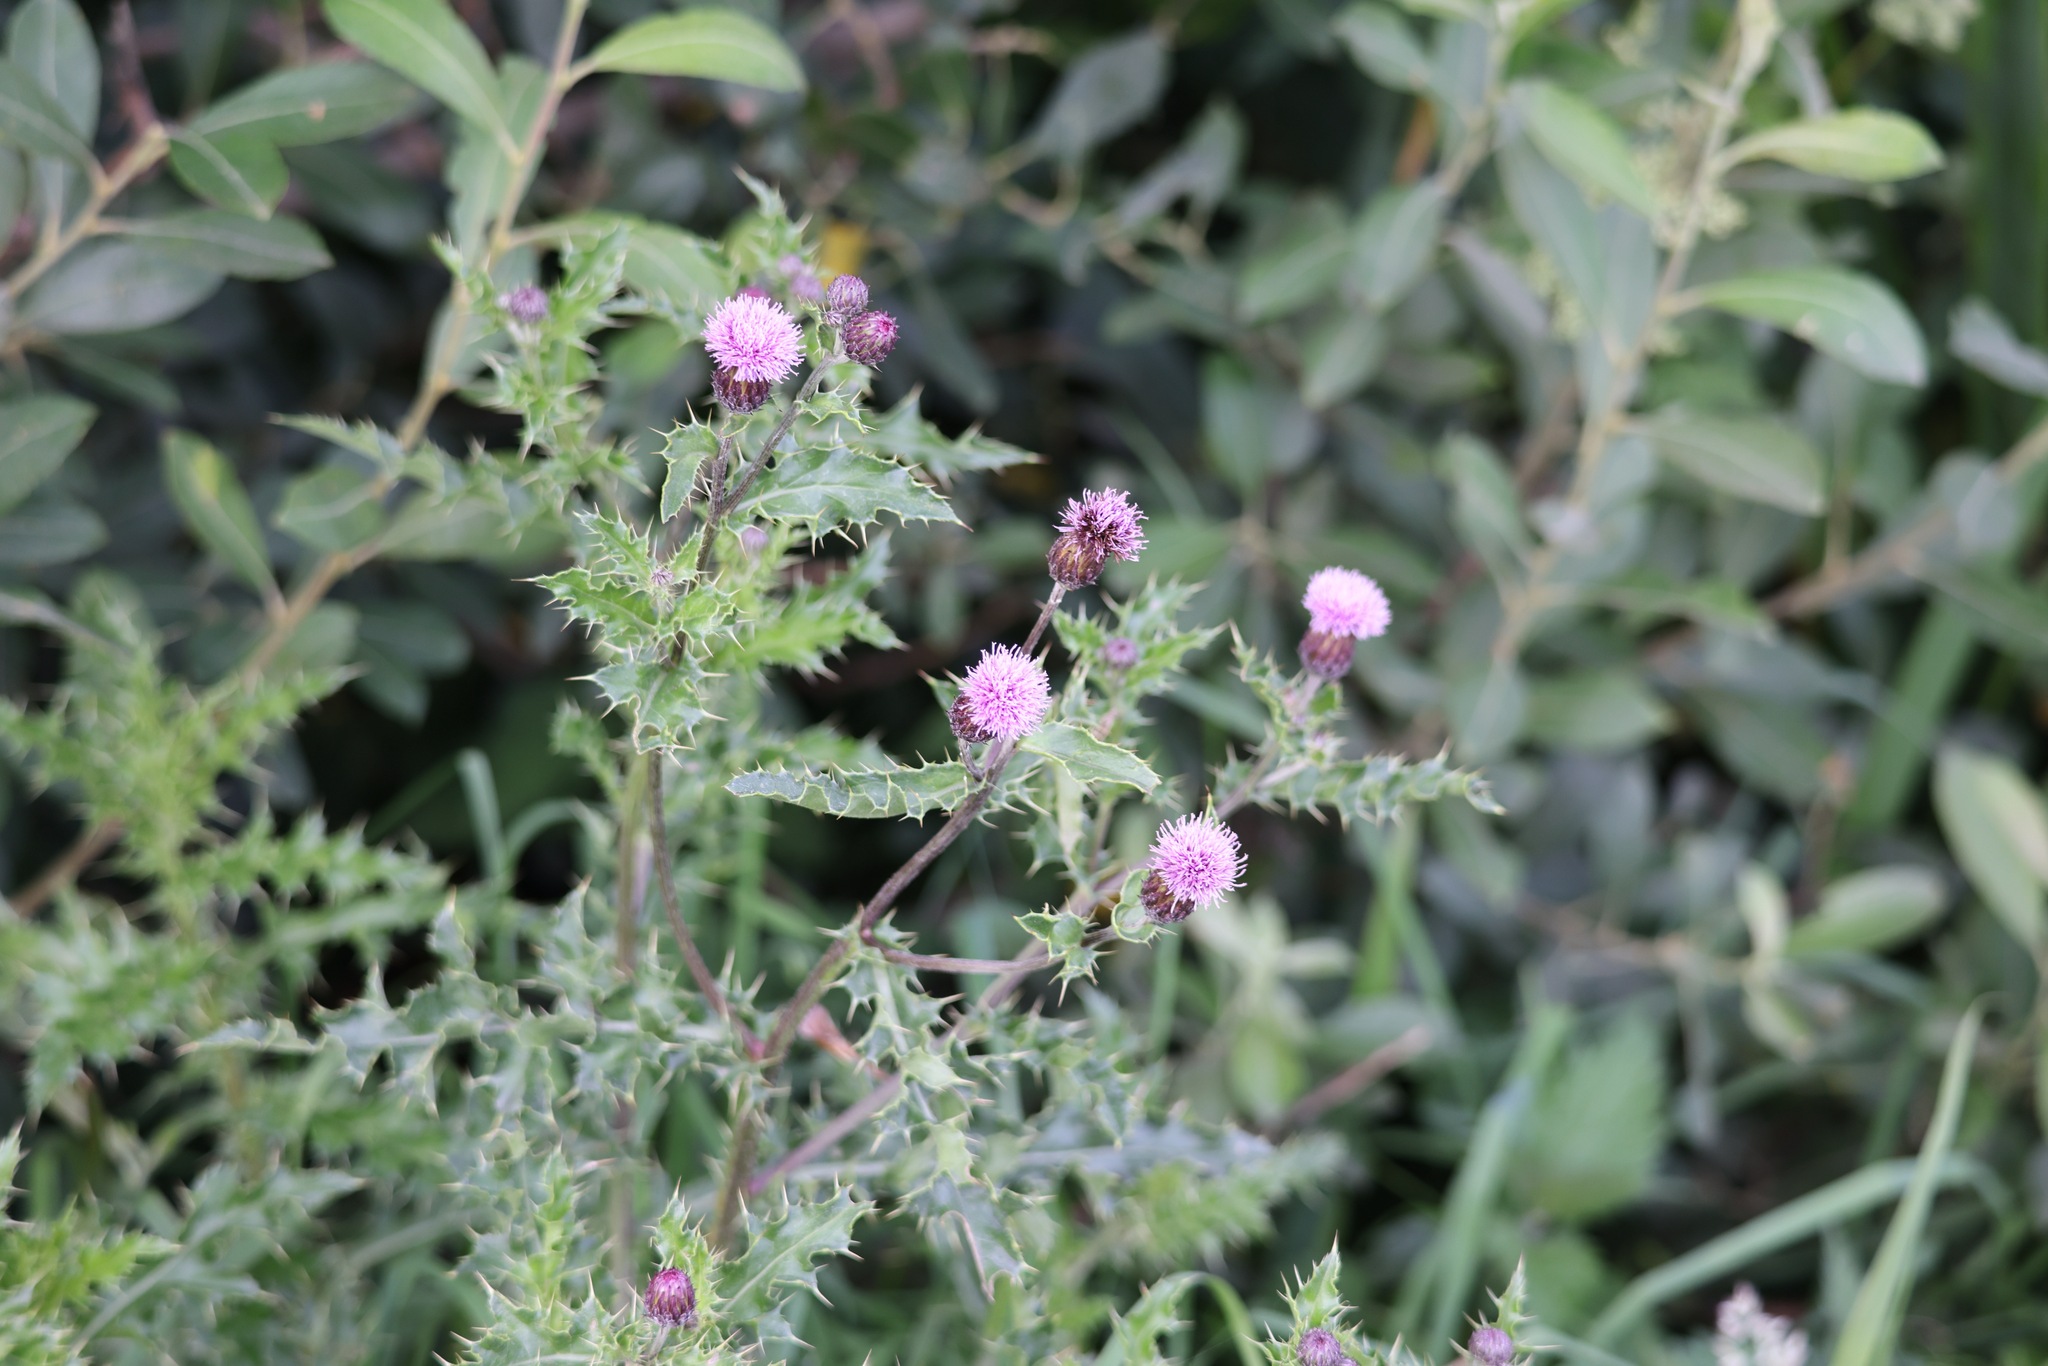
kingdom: Plantae
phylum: Tracheophyta
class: Magnoliopsida
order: Asterales
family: Asteraceae
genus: Cirsium
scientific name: Cirsium arvense
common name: Creeping thistle
